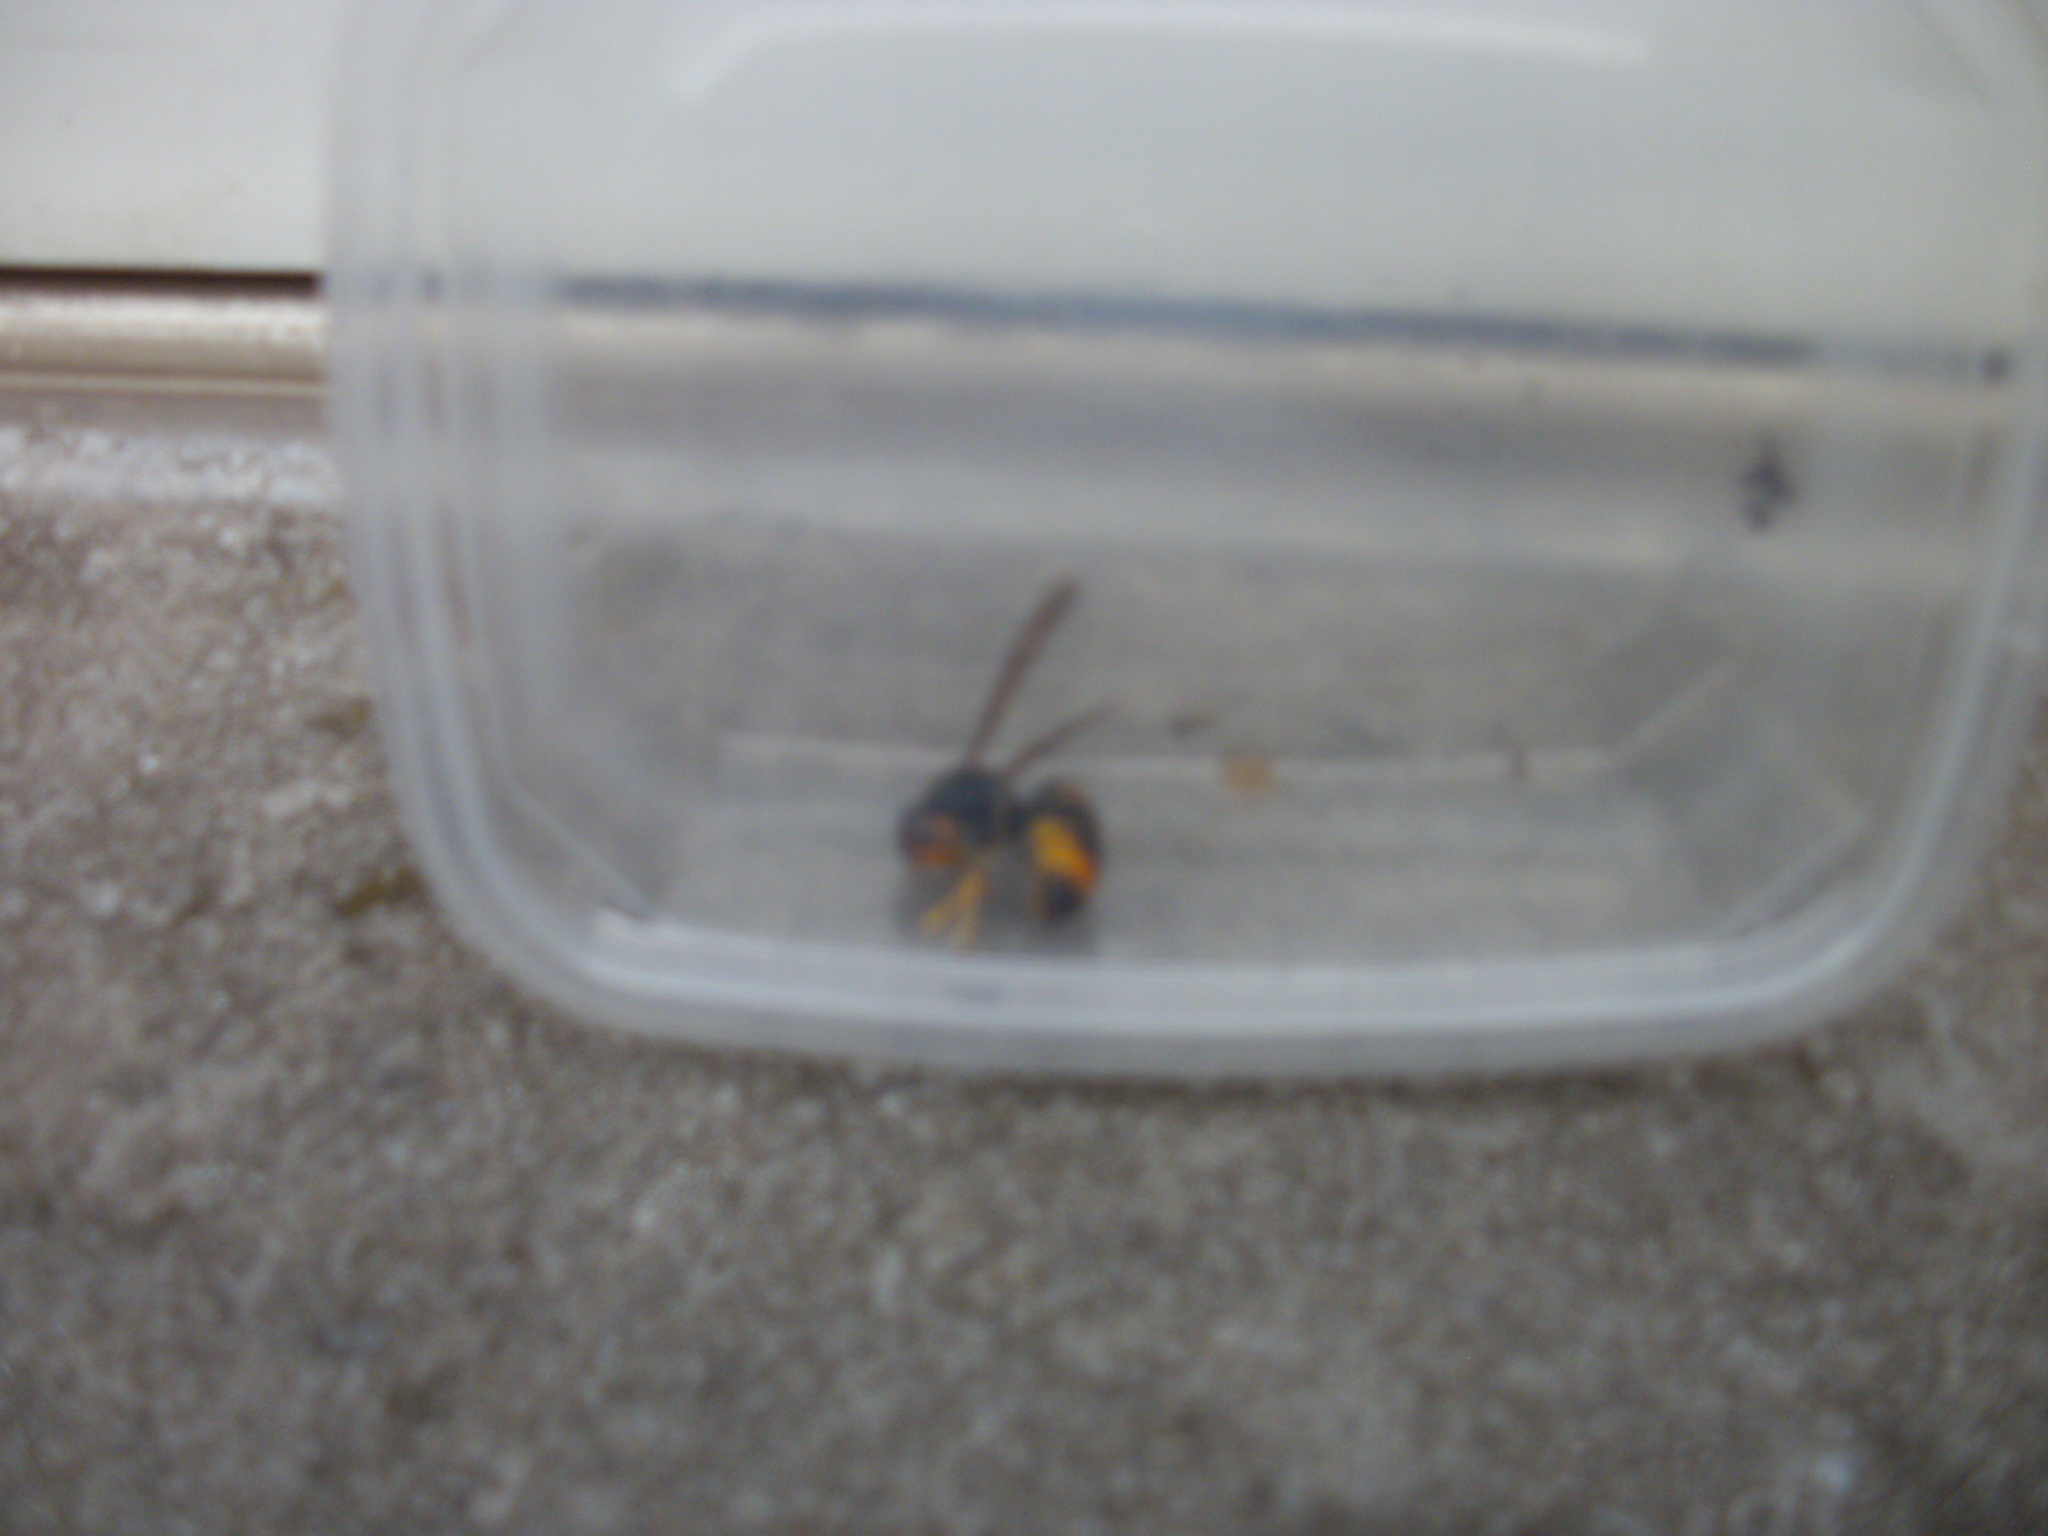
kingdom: Animalia
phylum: Arthropoda
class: Insecta
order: Hymenoptera
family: Vespidae
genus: Vespa
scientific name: Vespa velutina
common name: Asian hornet
